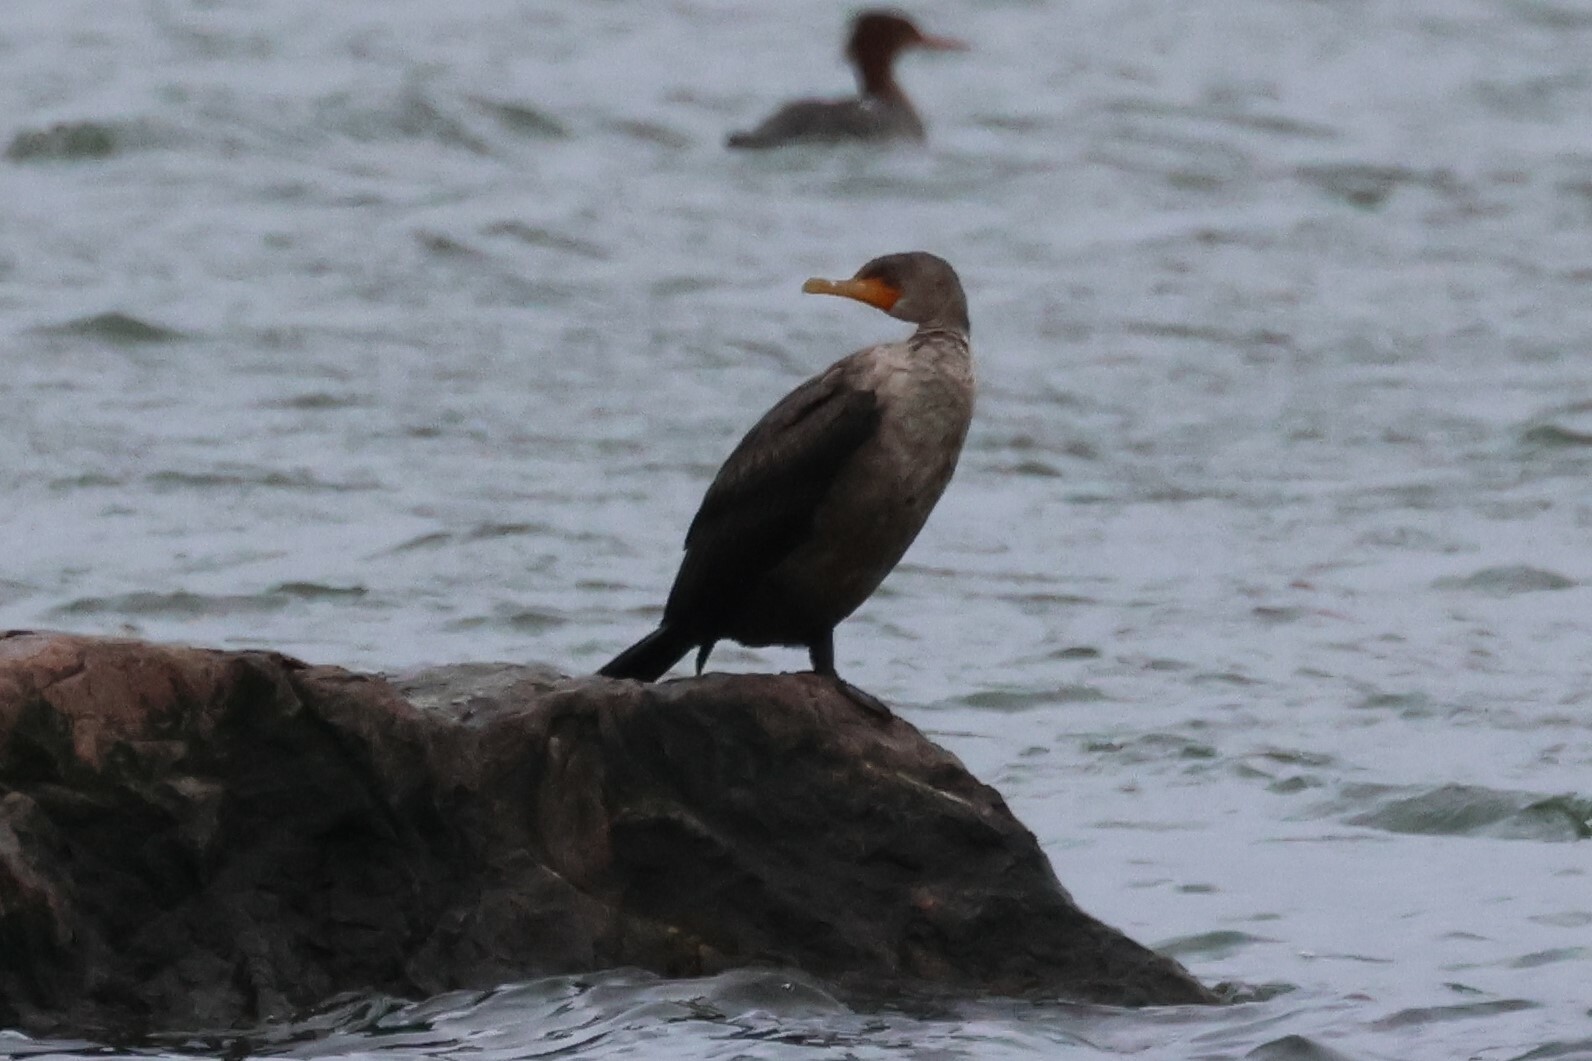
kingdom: Animalia
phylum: Chordata
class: Aves
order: Suliformes
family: Phalacrocoracidae
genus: Phalacrocorax
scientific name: Phalacrocorax auritus
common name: Double-crested cormorant
